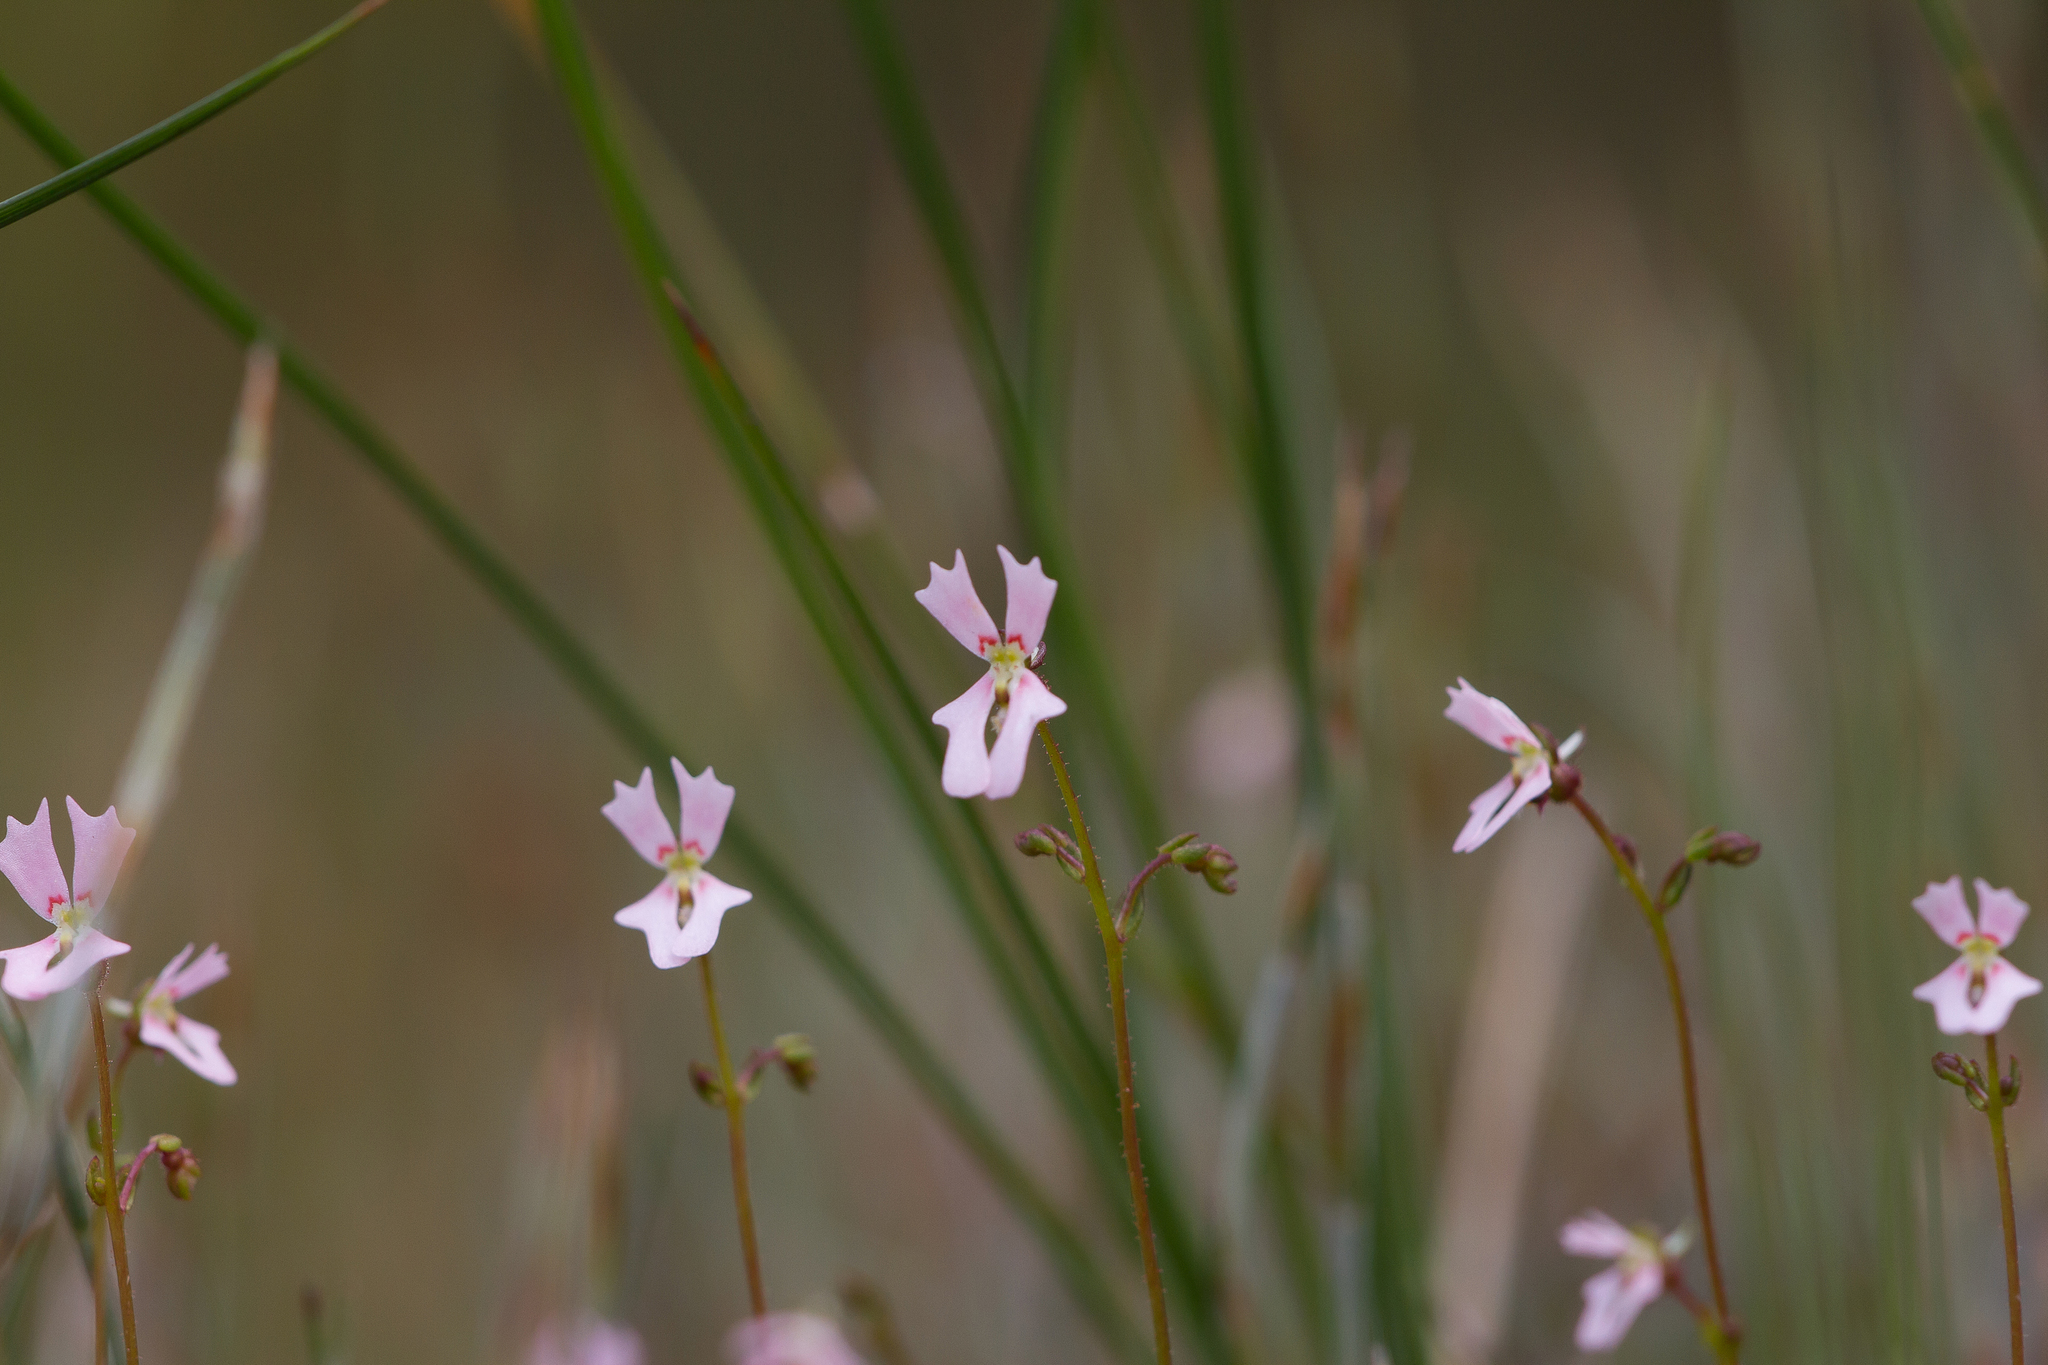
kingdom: Plantae
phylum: Tracheophyta
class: Magnoliopsida
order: Asterales
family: Stylidiaceae
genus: Stylidium
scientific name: Stylidium calcaratum
